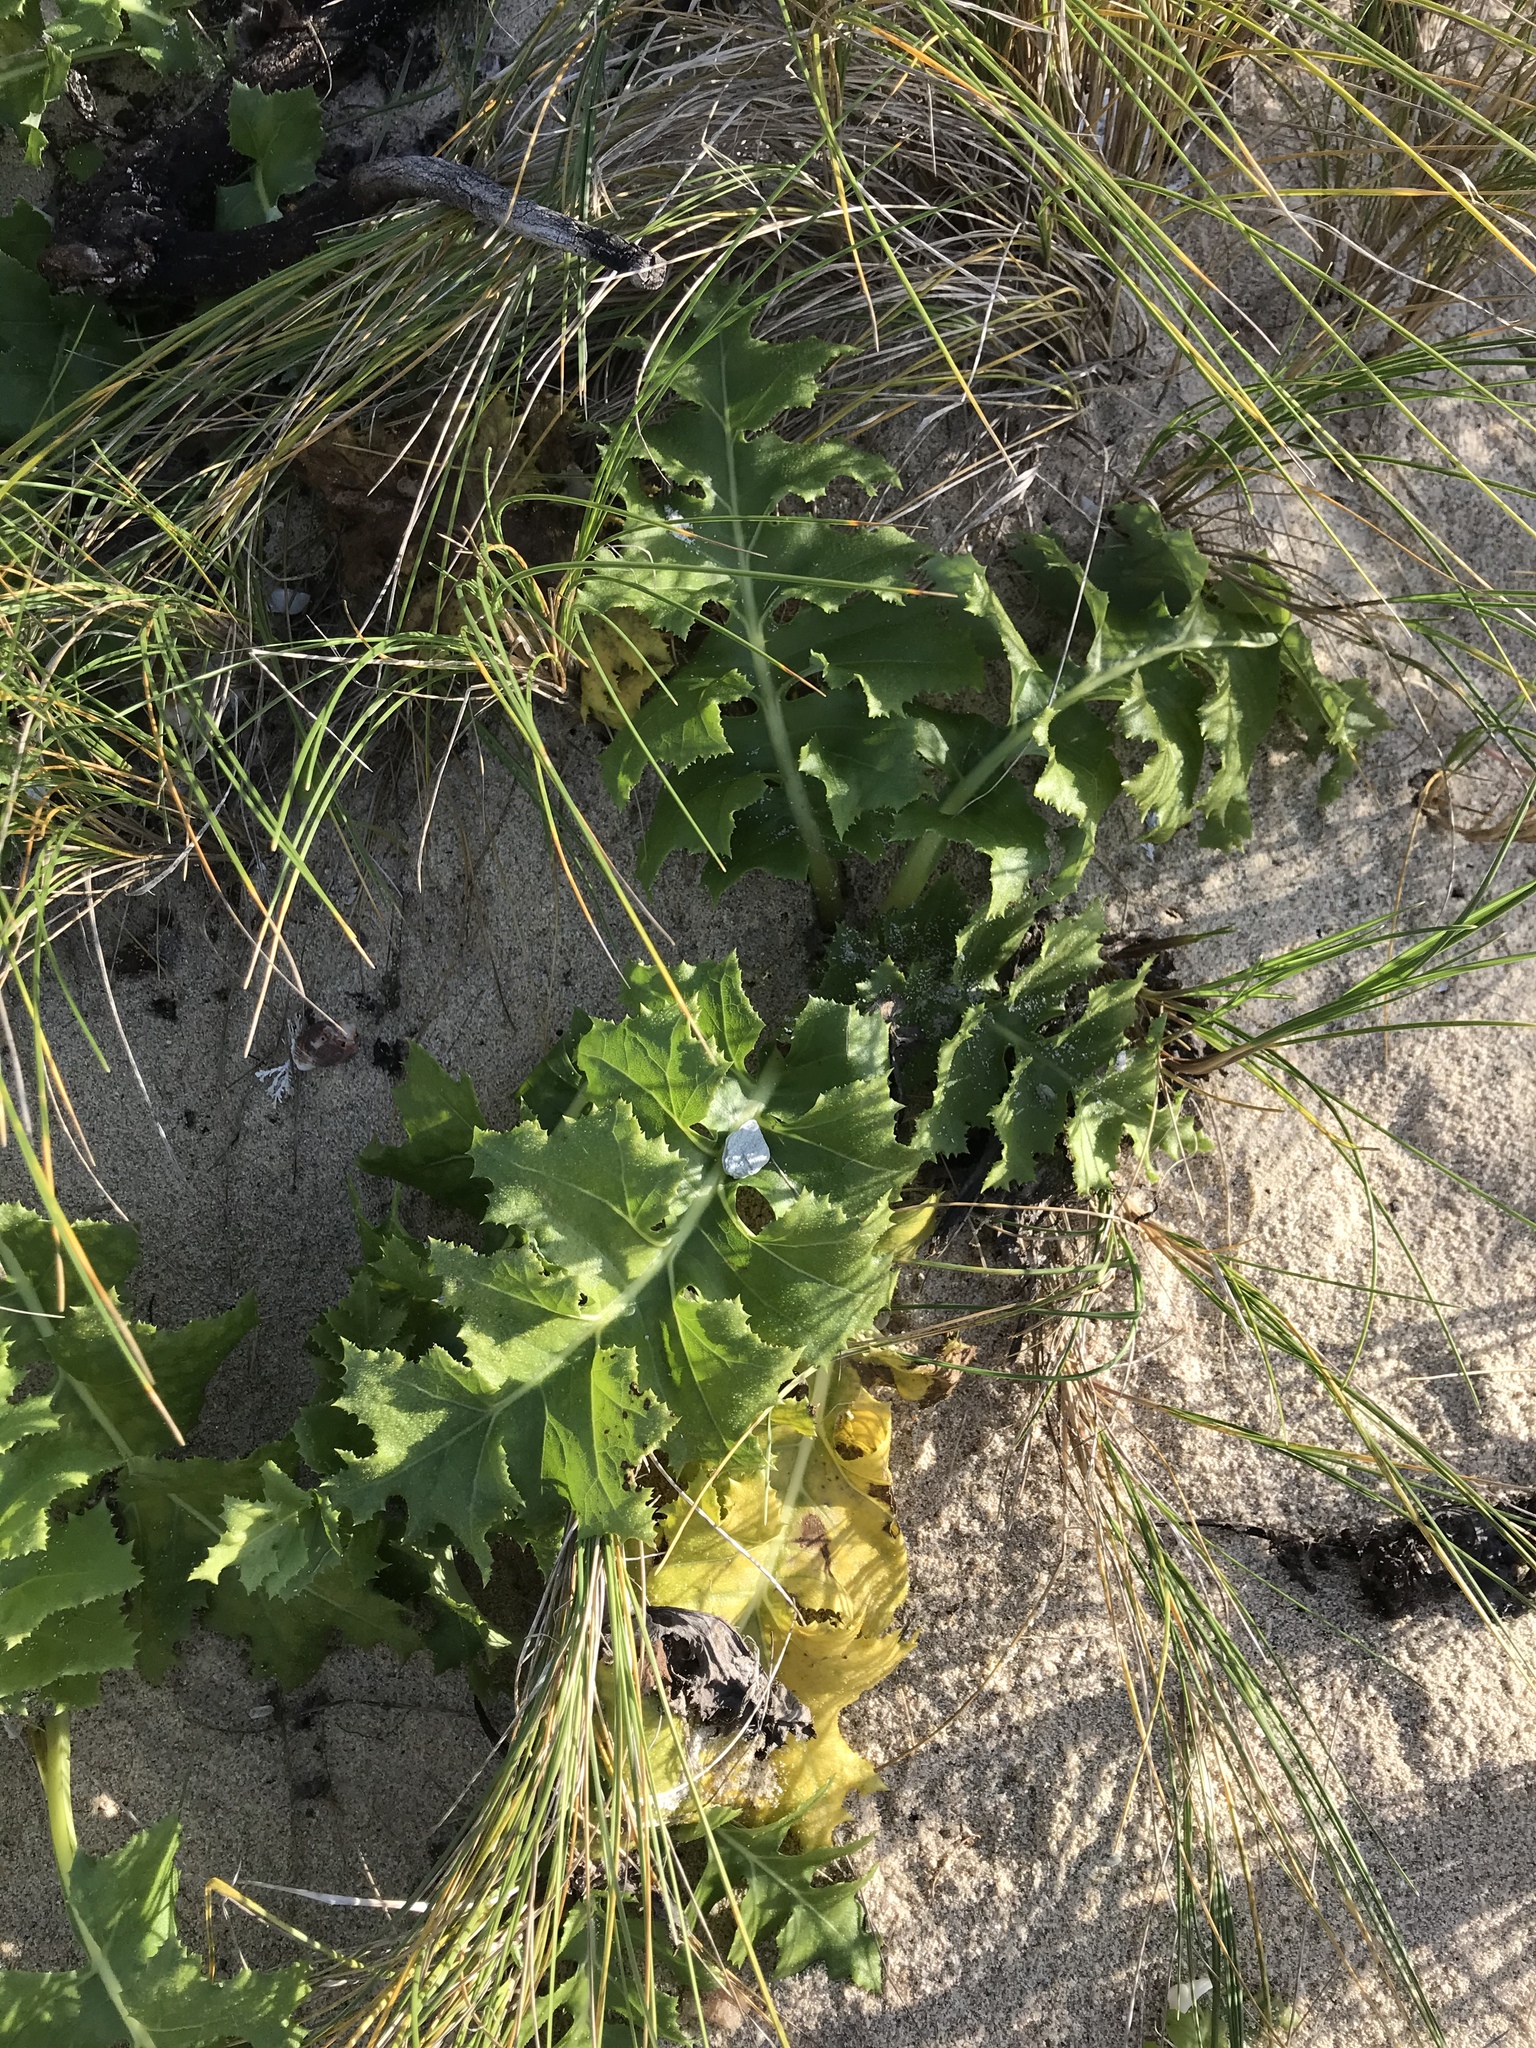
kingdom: Plantae
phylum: Tracheophyta
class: Magnoliopsida
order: Asterales
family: Asteraceae
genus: Sonchus
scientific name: Sonchus grandifolius
